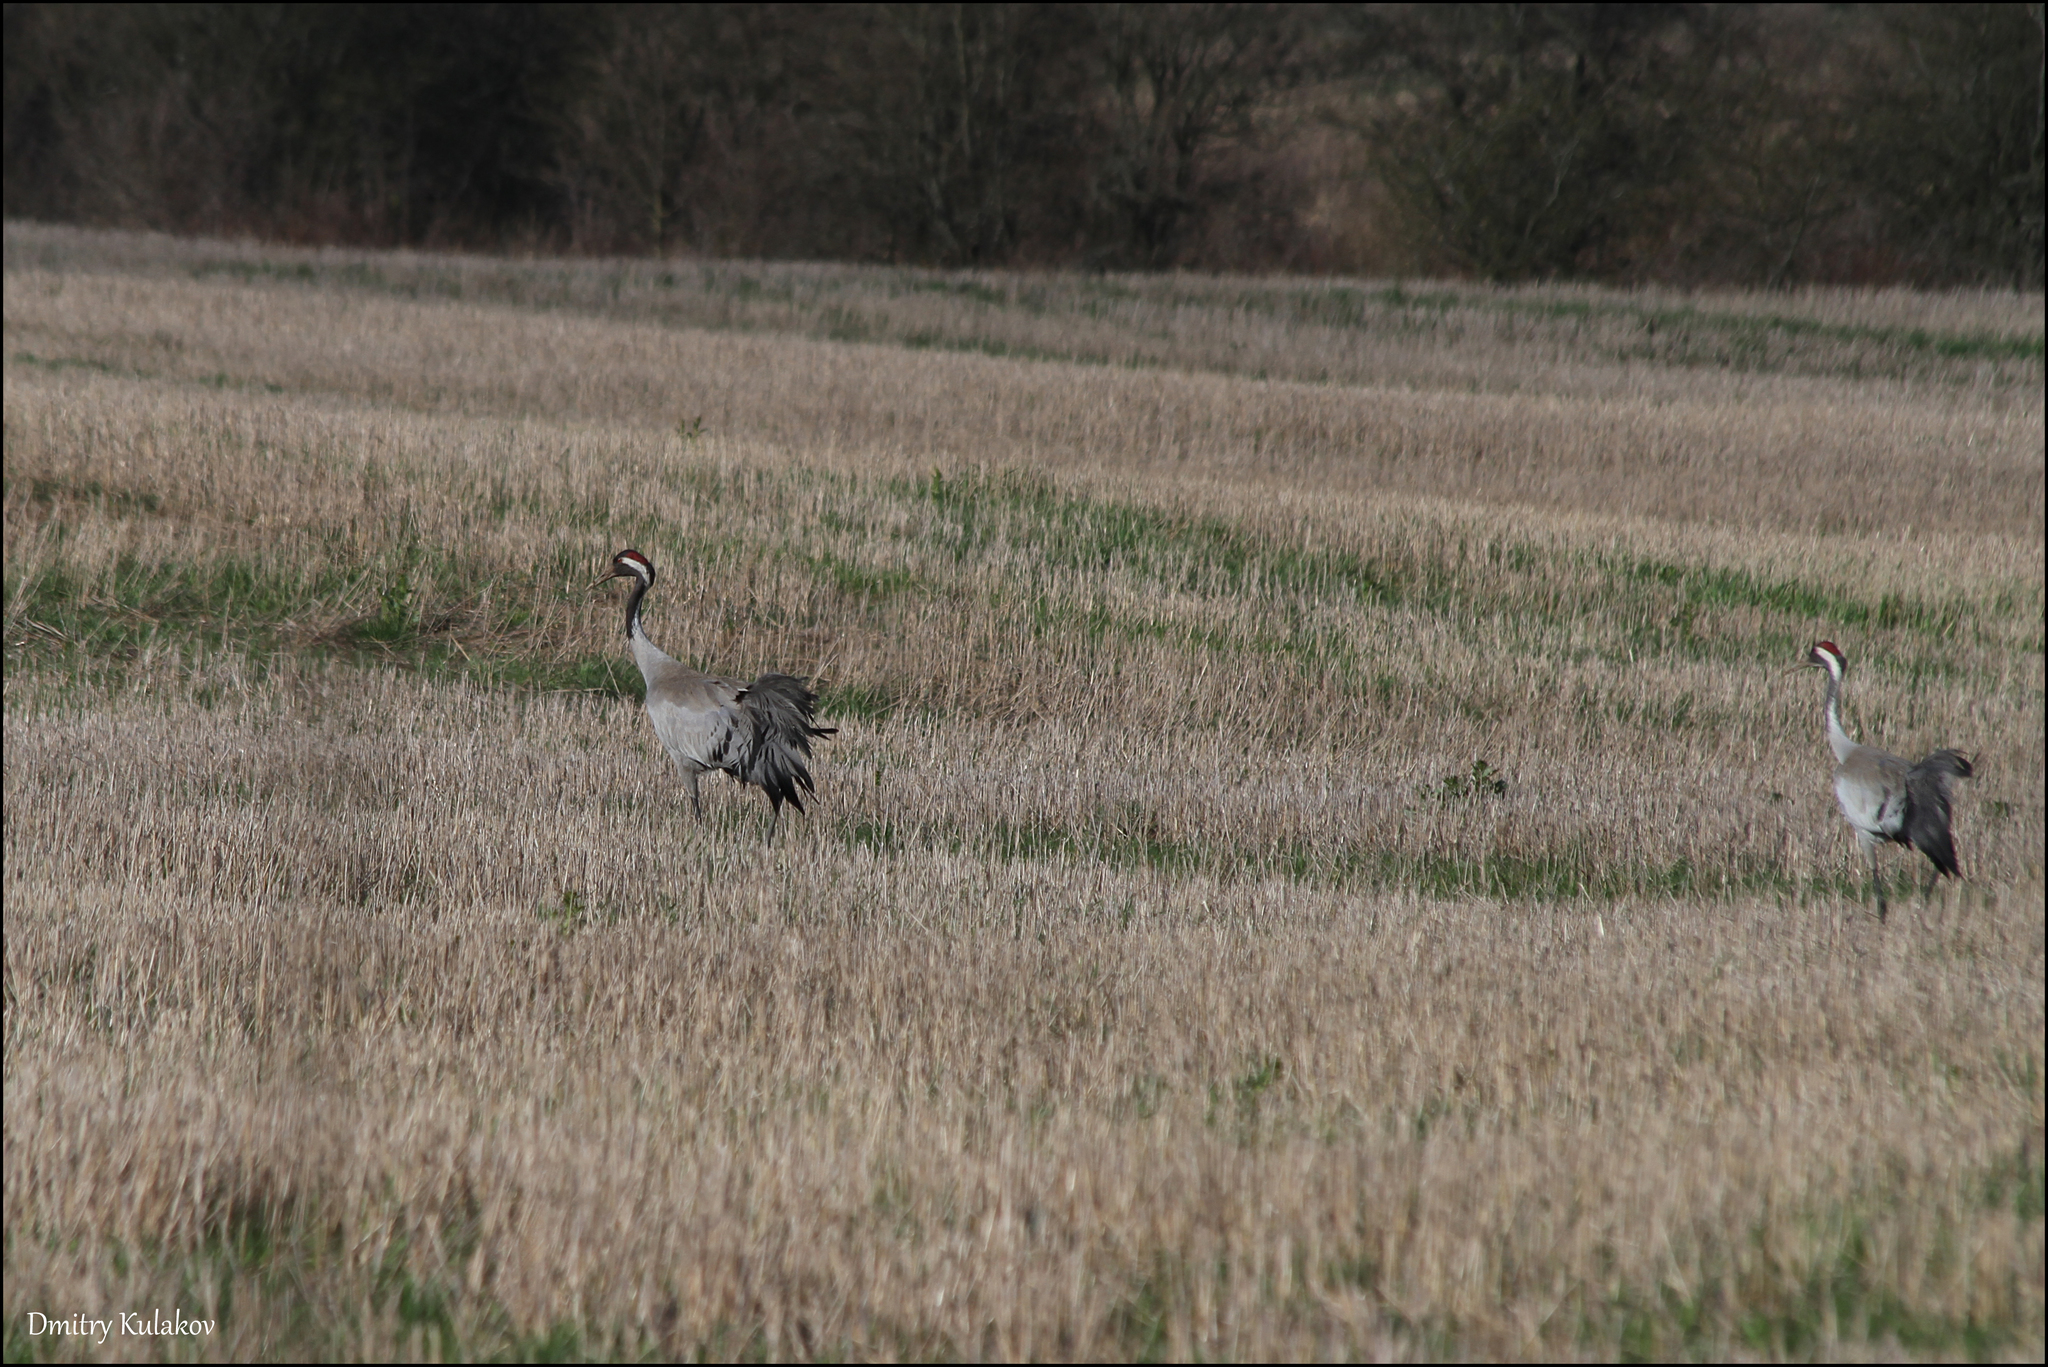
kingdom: Animalia
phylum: Chordata
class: Aves
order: Gruiformes
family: Gruidae
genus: Grus
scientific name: Grus grus
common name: Common crane
